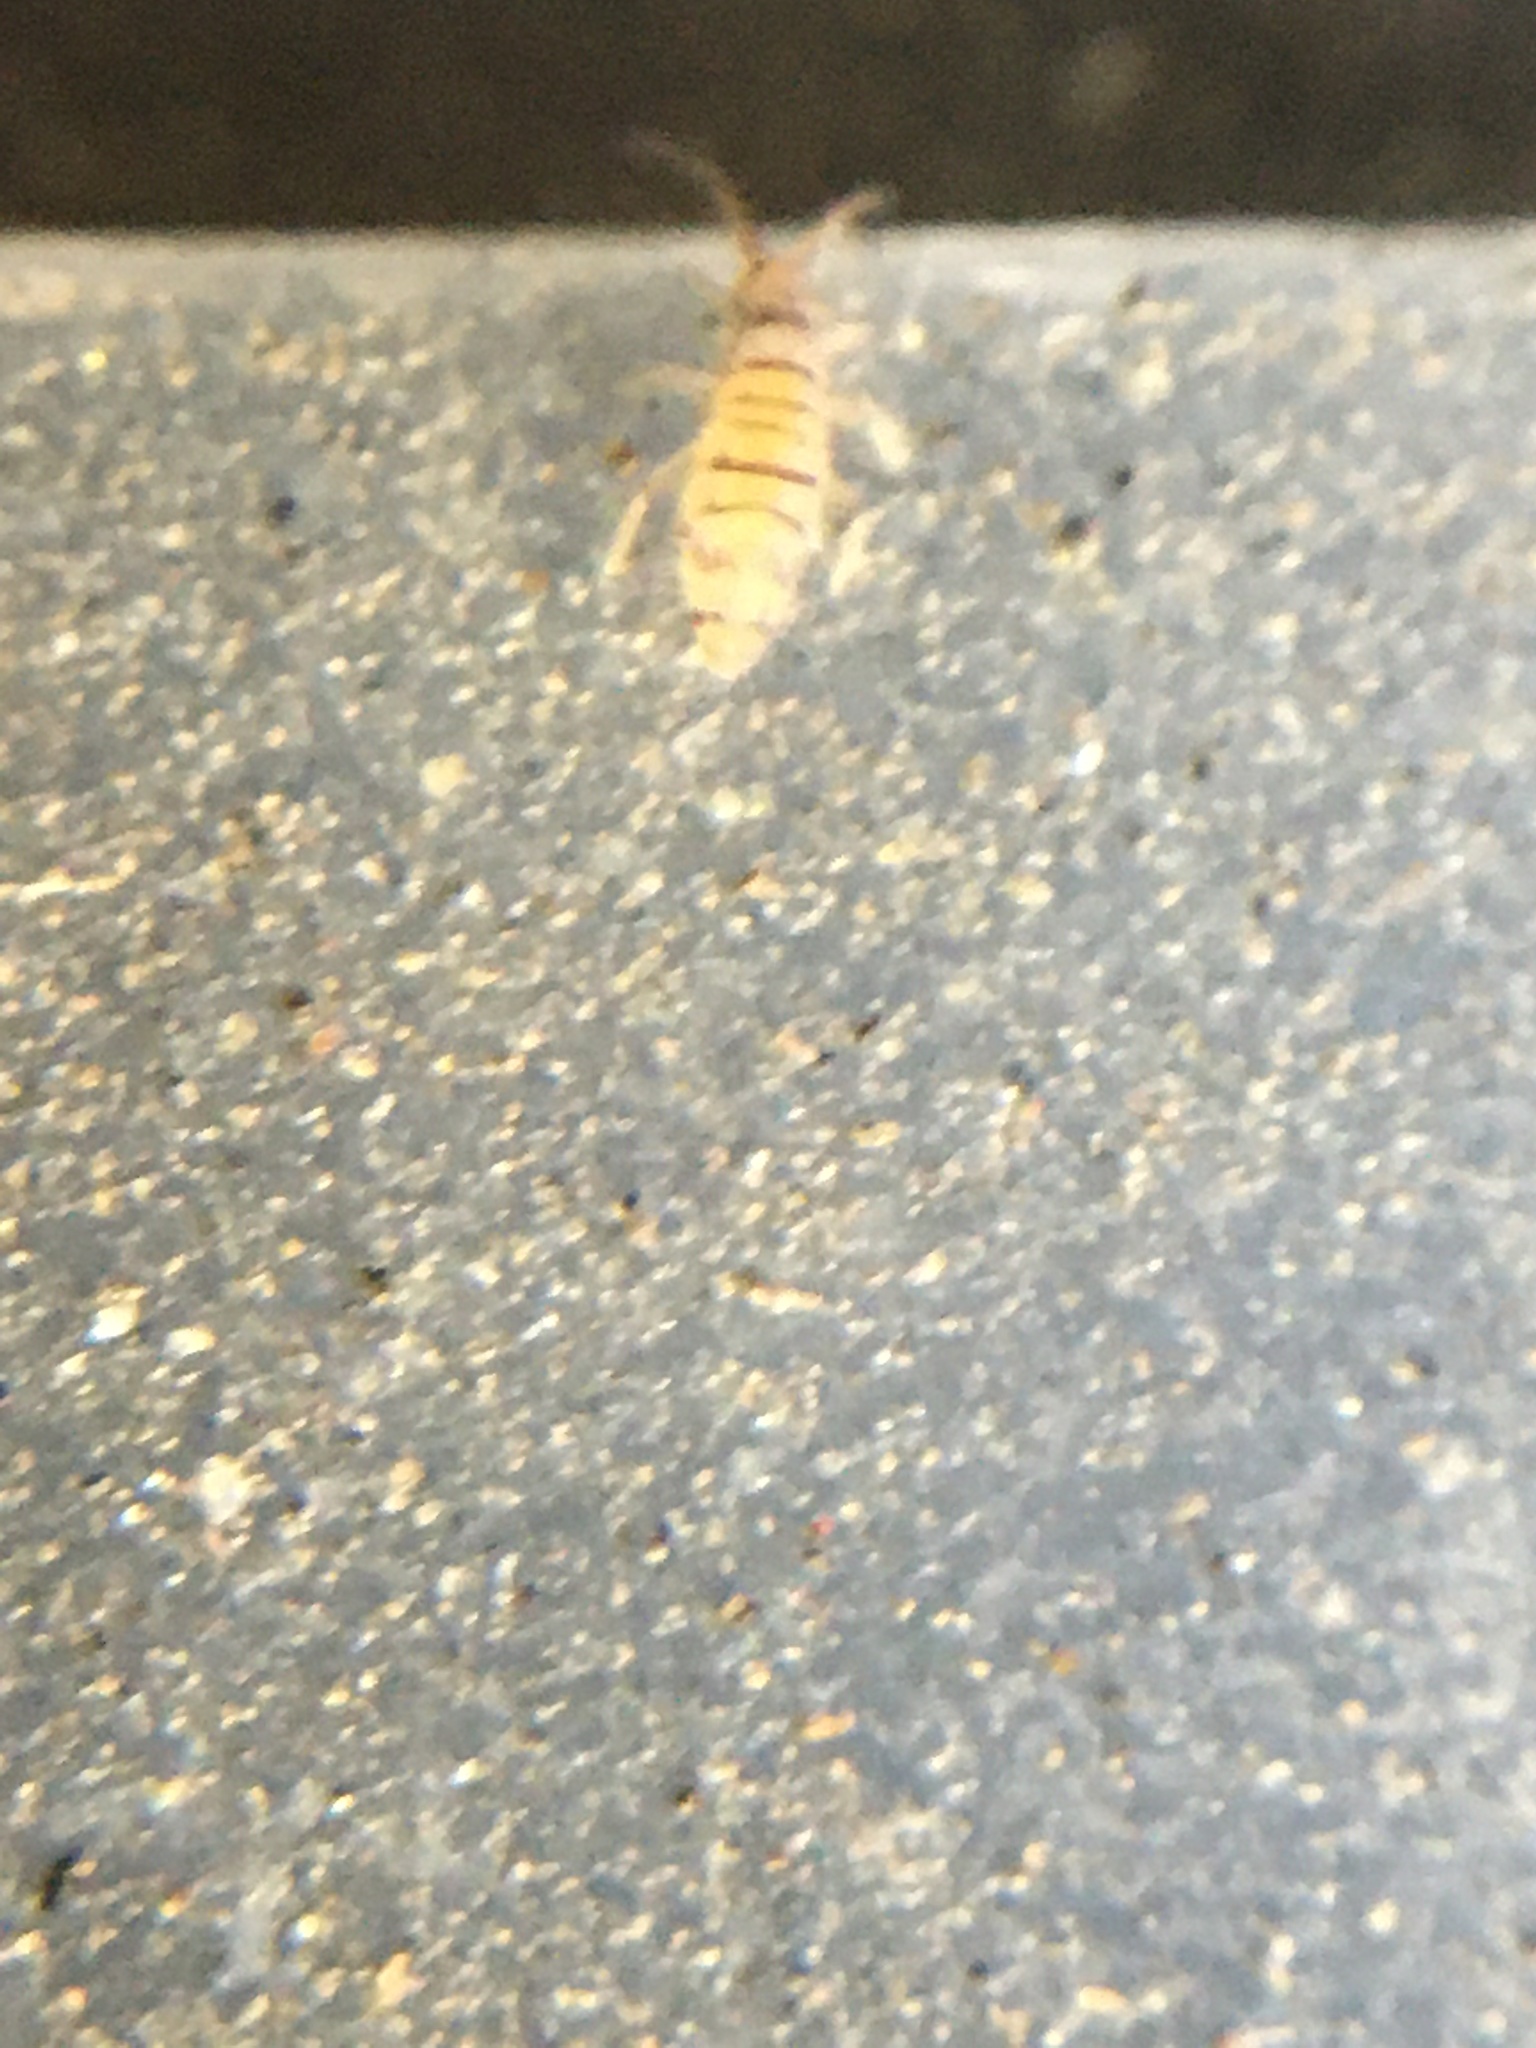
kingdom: Animalia
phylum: Arthropoda
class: Collembola
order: Entomobryomorpha
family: Entomobryidae
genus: Entomobrya
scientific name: Entomobrya atrocincta
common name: Springtail
